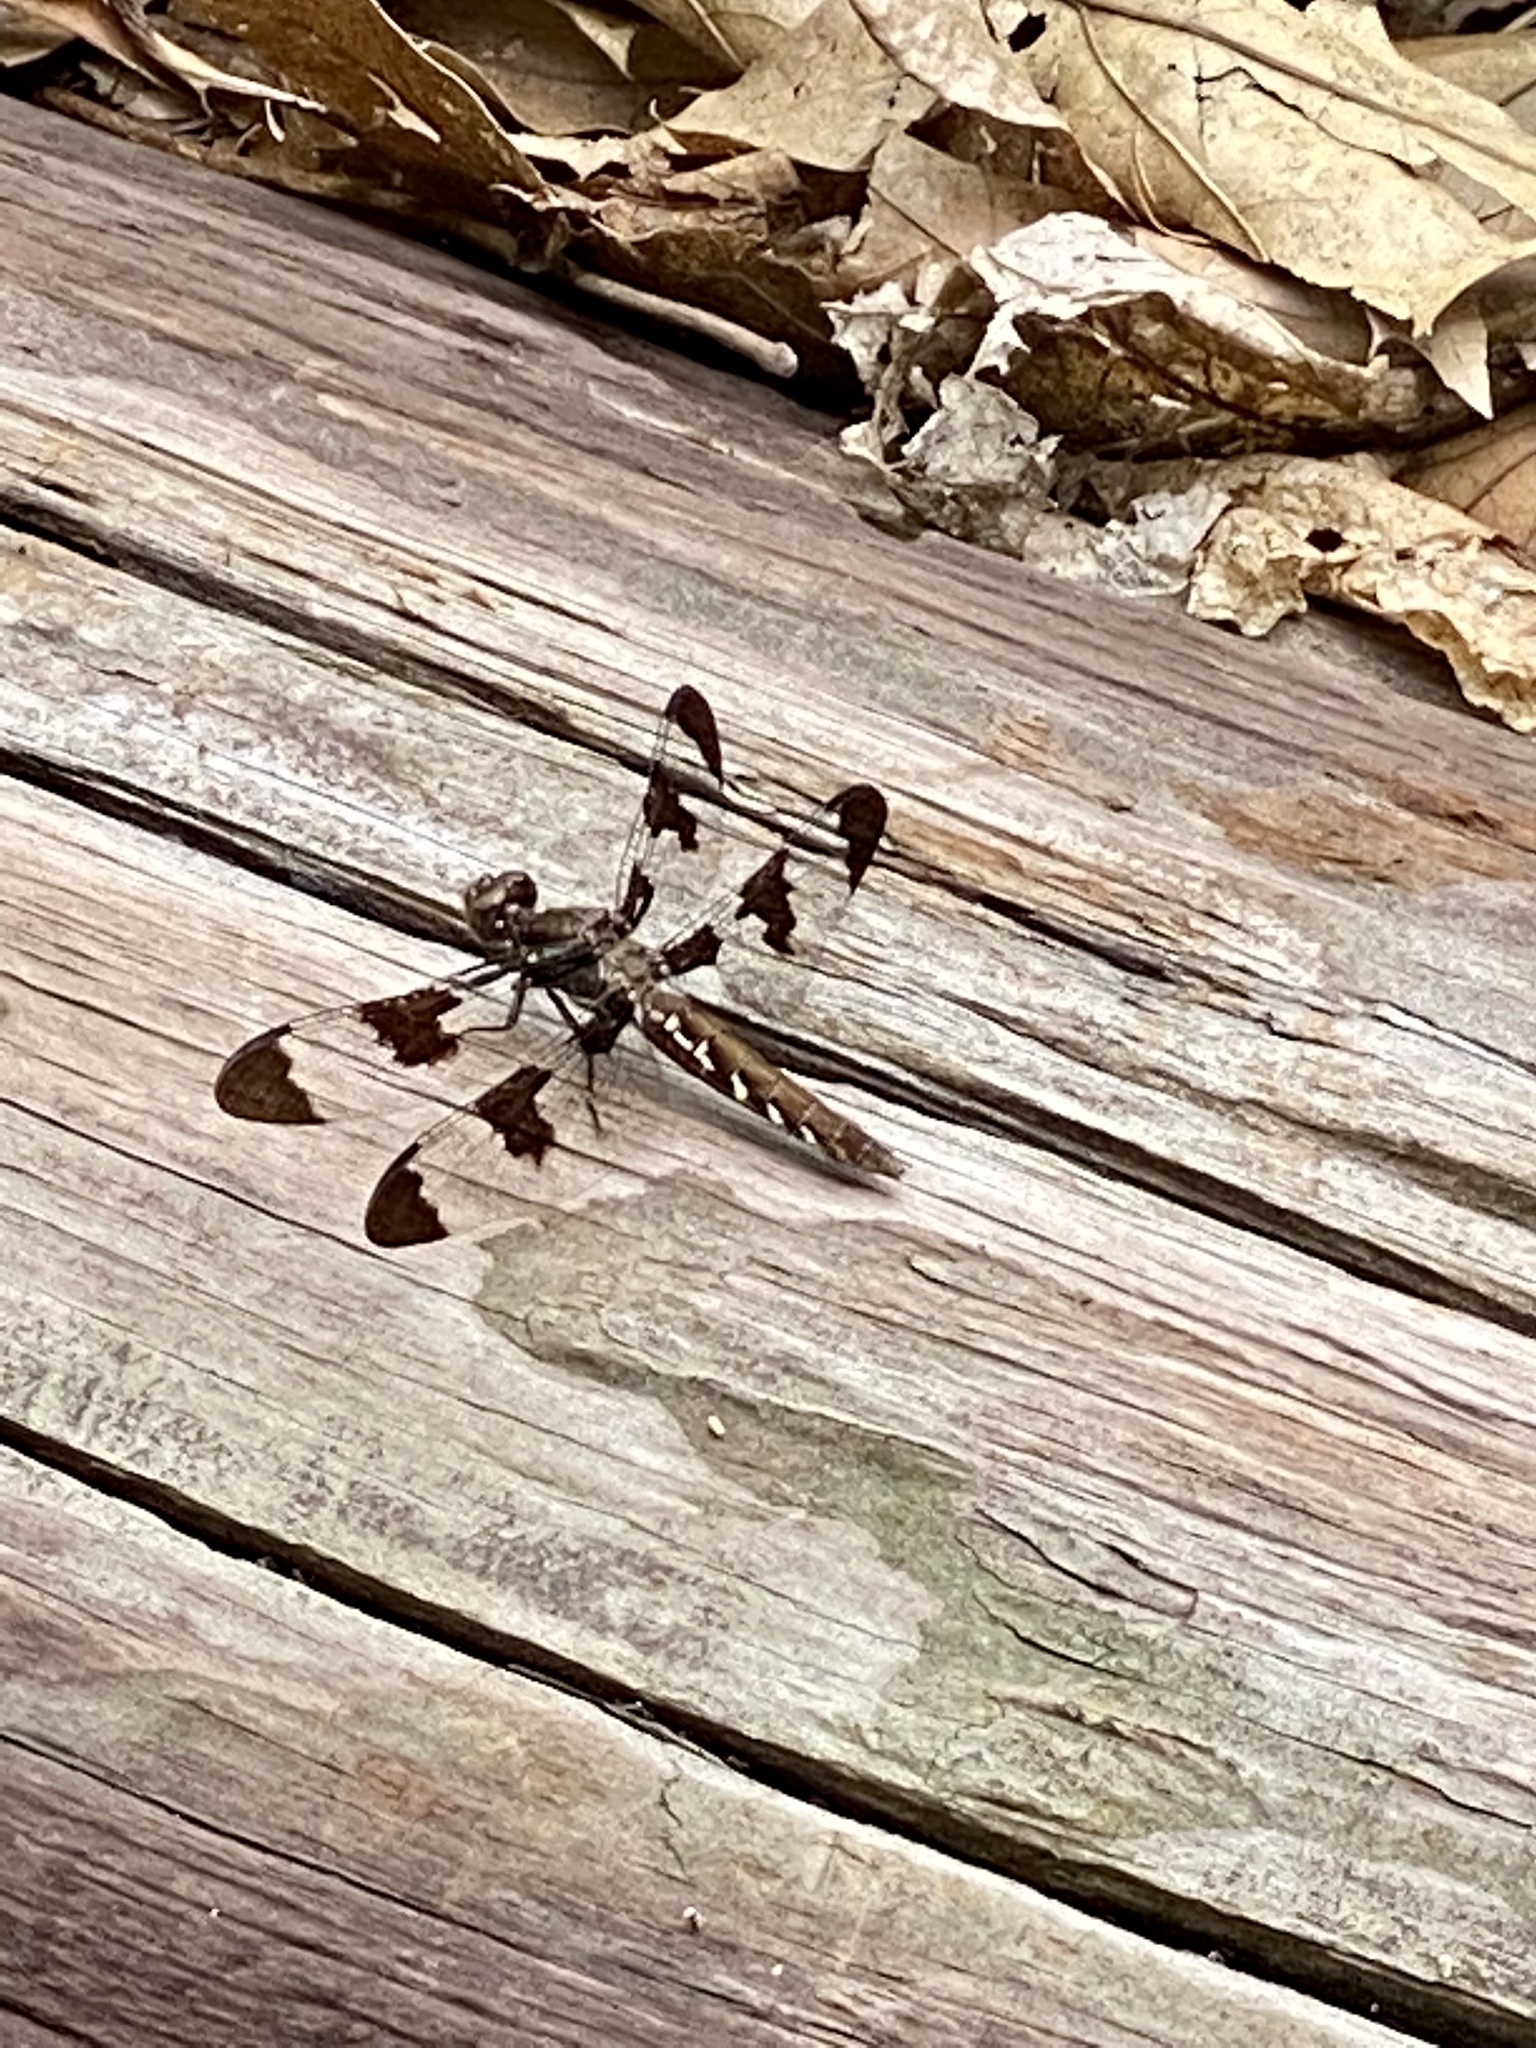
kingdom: Animalia
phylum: Arthropoda
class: Insecta
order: Odonata
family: Libellulidae
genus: Plathemis
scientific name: Plathemis lydia
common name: Common whitetail
